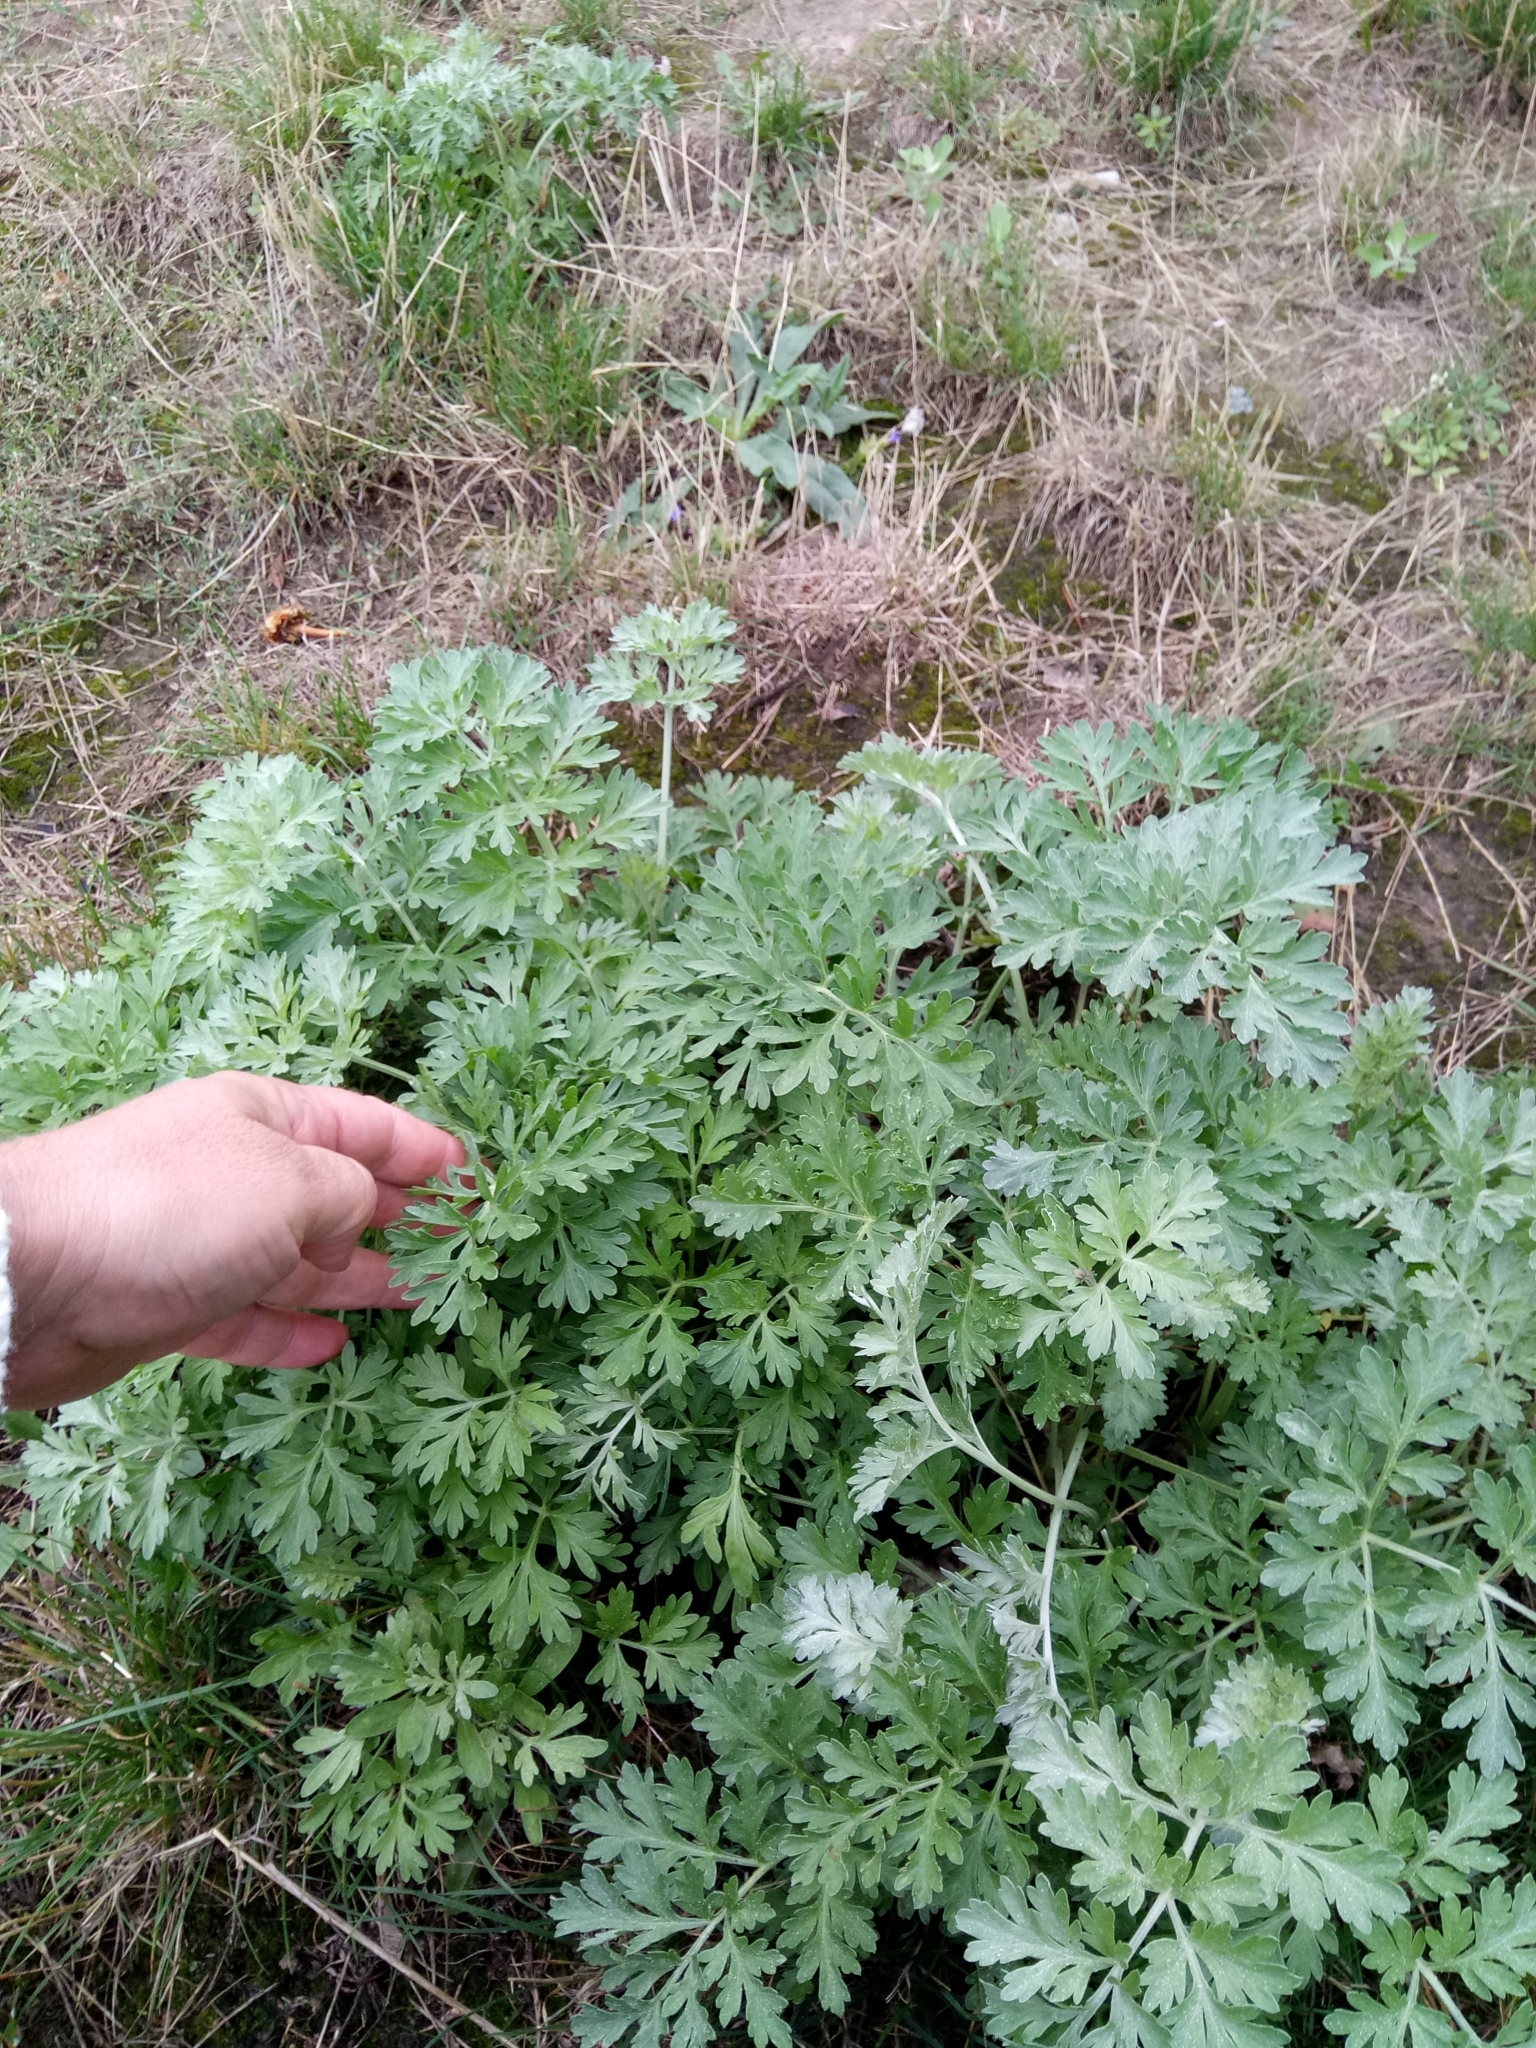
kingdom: Plantae
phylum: Tracheophyta
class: Magnoliopsida
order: Asterales
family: Asteraceae
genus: Artemisia
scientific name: Artemisia absinthium
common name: Wormwood
